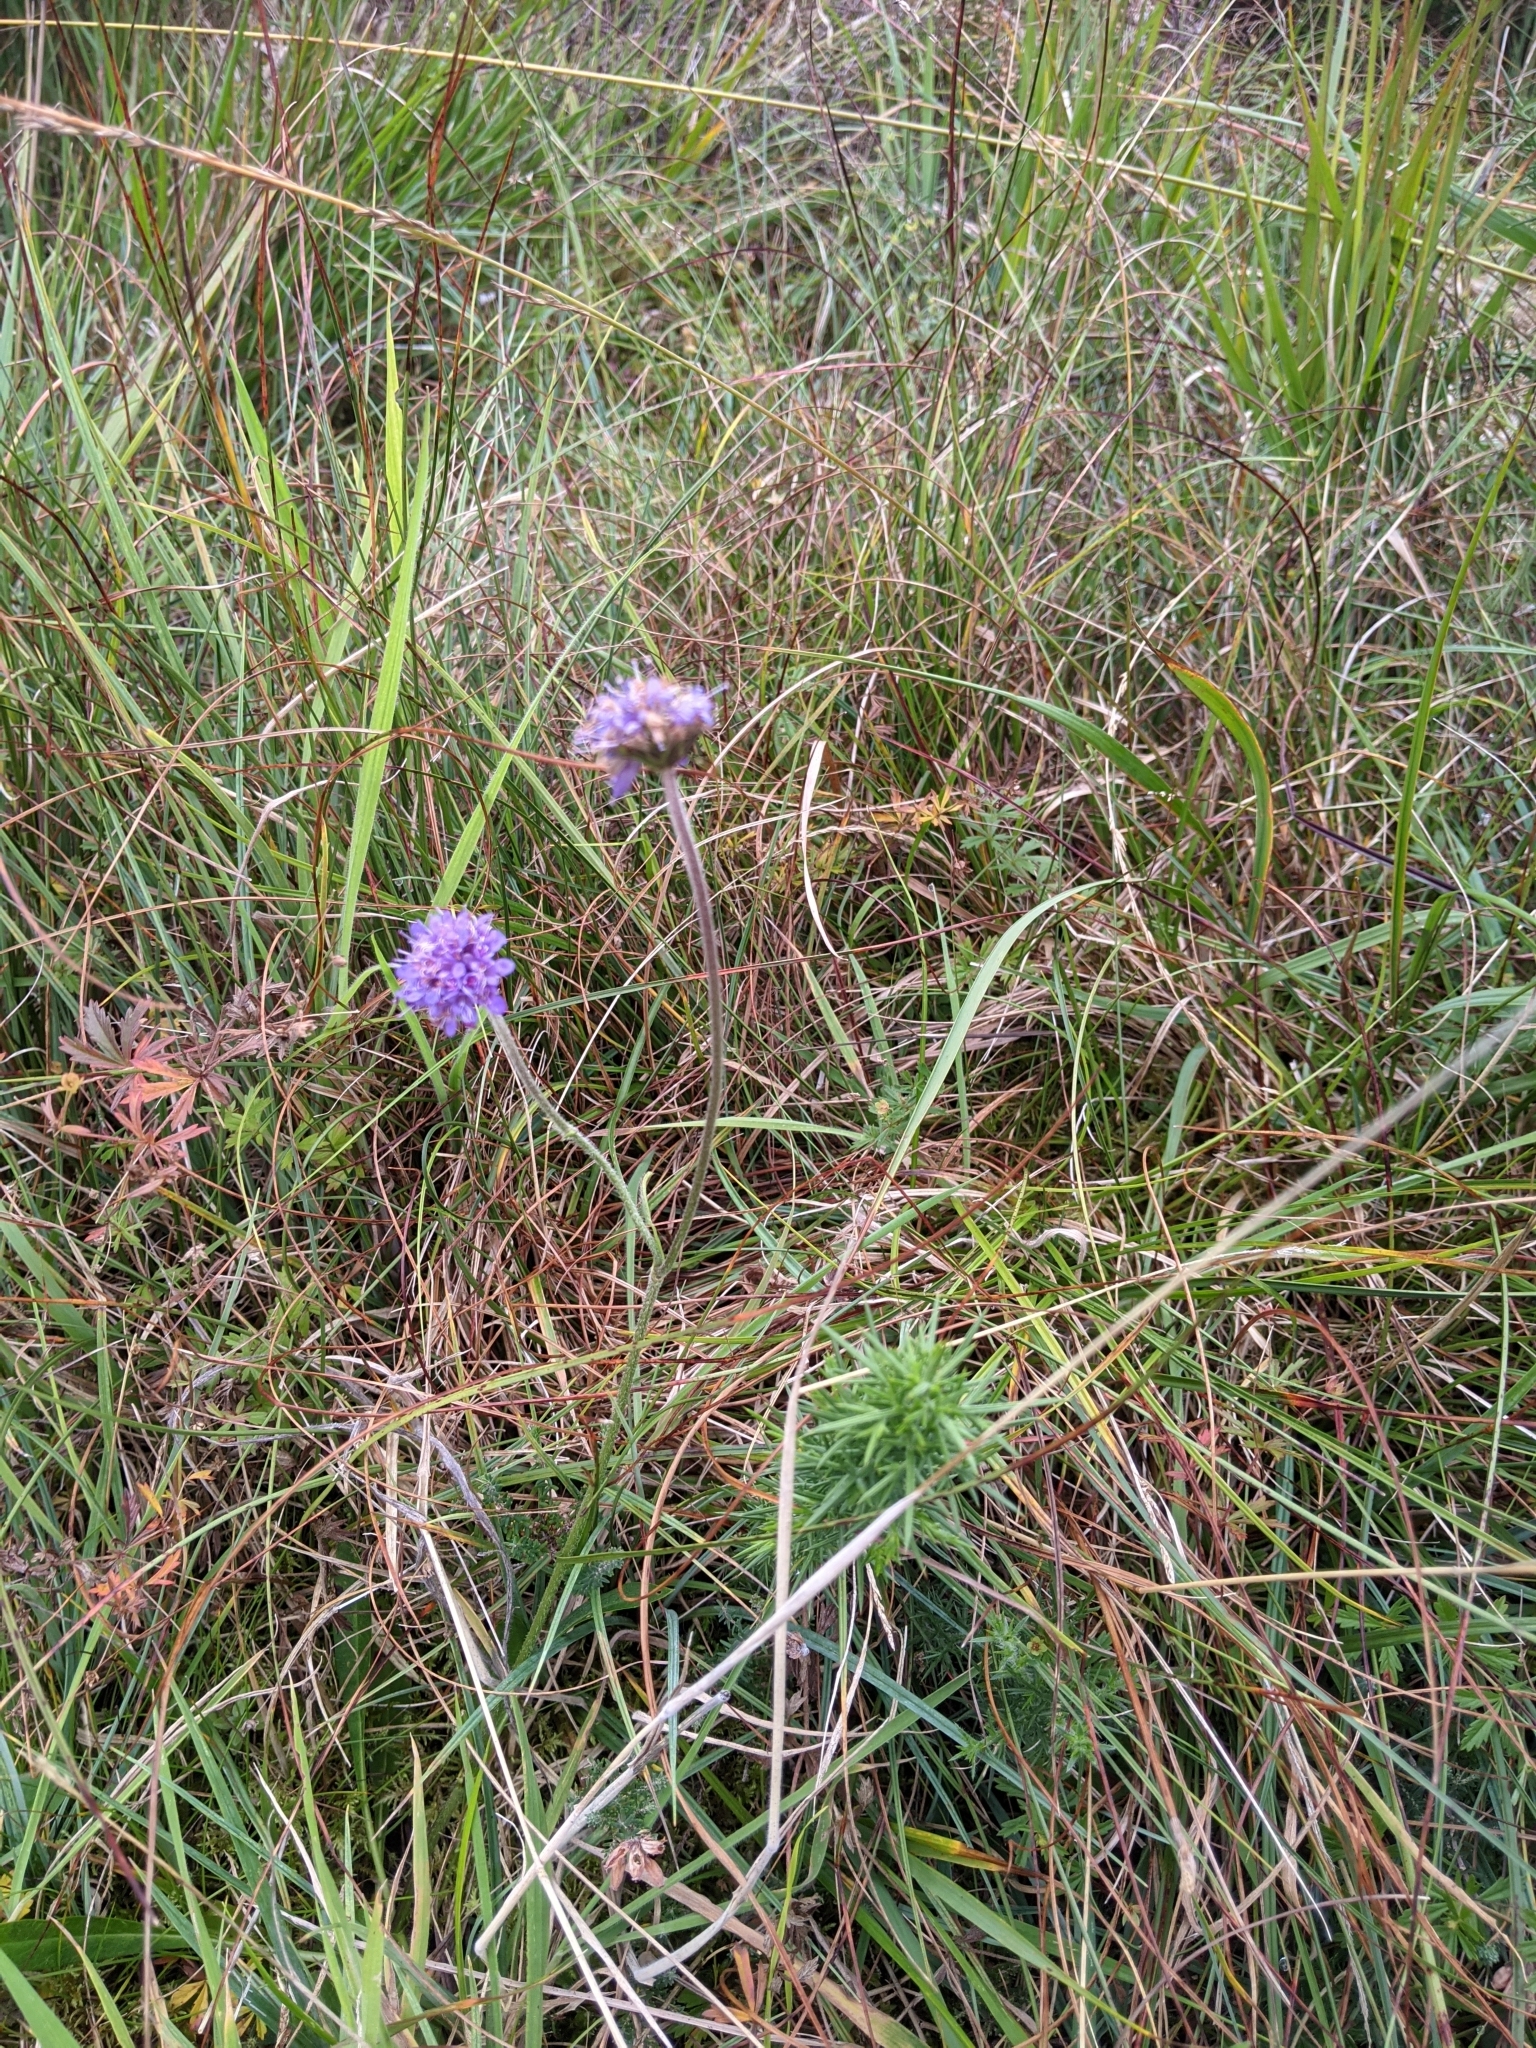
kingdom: Plantae
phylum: Tracheophyta
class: Magnoliopsida
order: Dipsacales
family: Caprifoliaceae
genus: Succisa
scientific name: Succisa pratensis
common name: Devil's-bit
